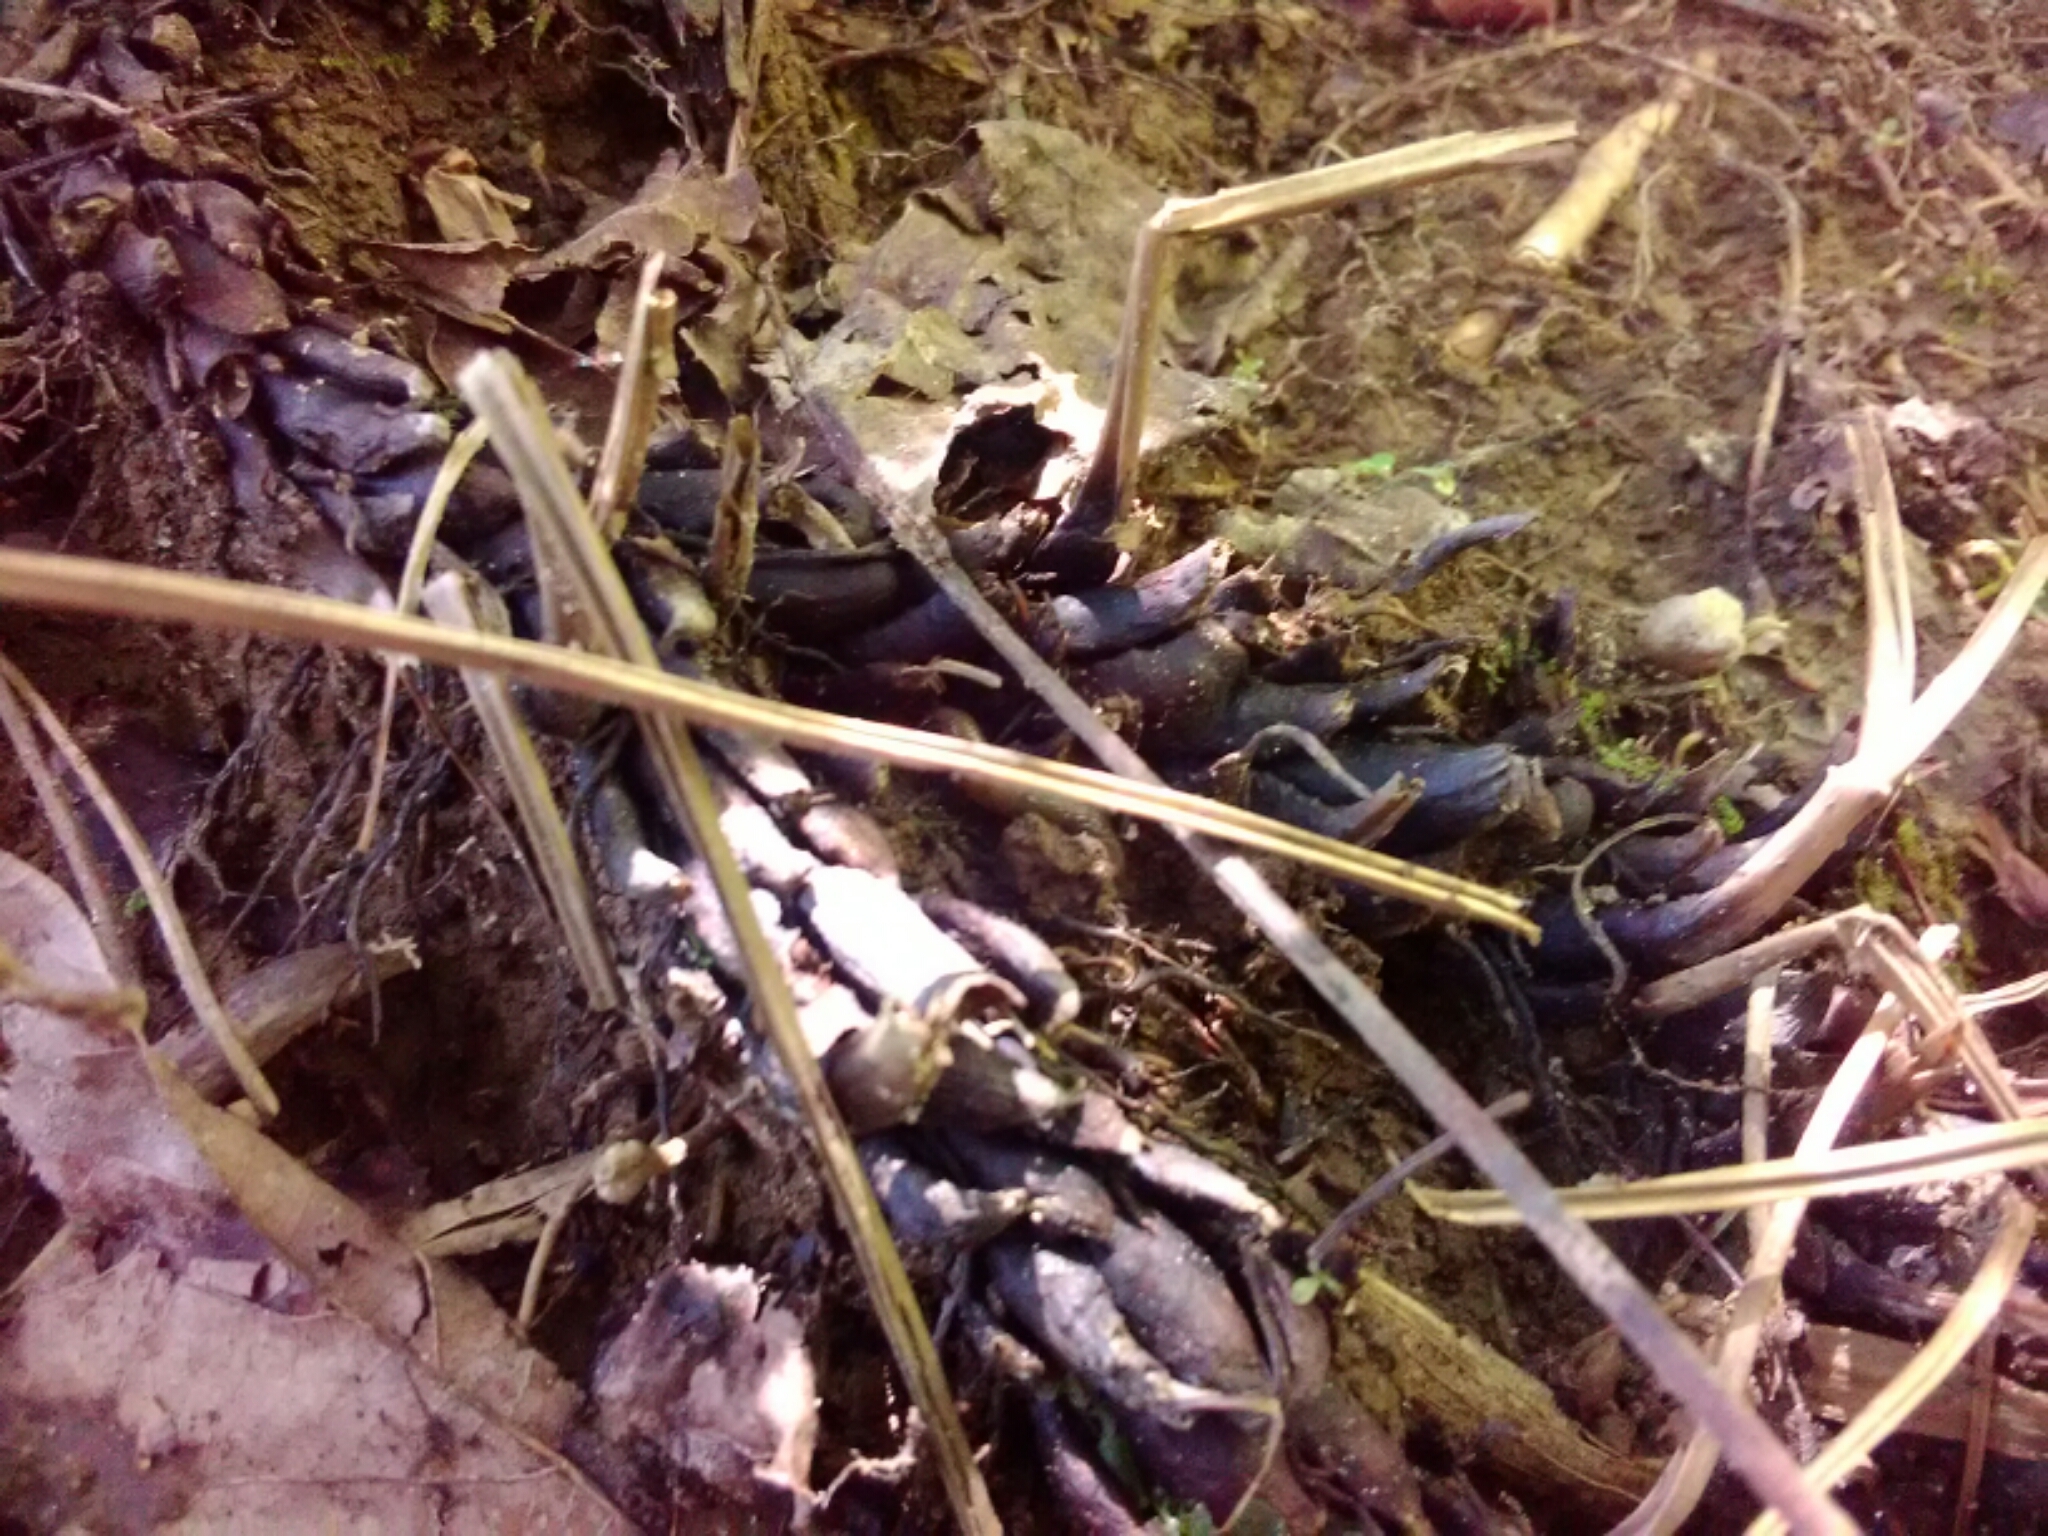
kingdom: Plantae
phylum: Tracheophyta
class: Magnoliopsida
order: Lamiales
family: Orobanchaceae
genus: Conopholis
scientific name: Conopholis americana
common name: American cancer-root
